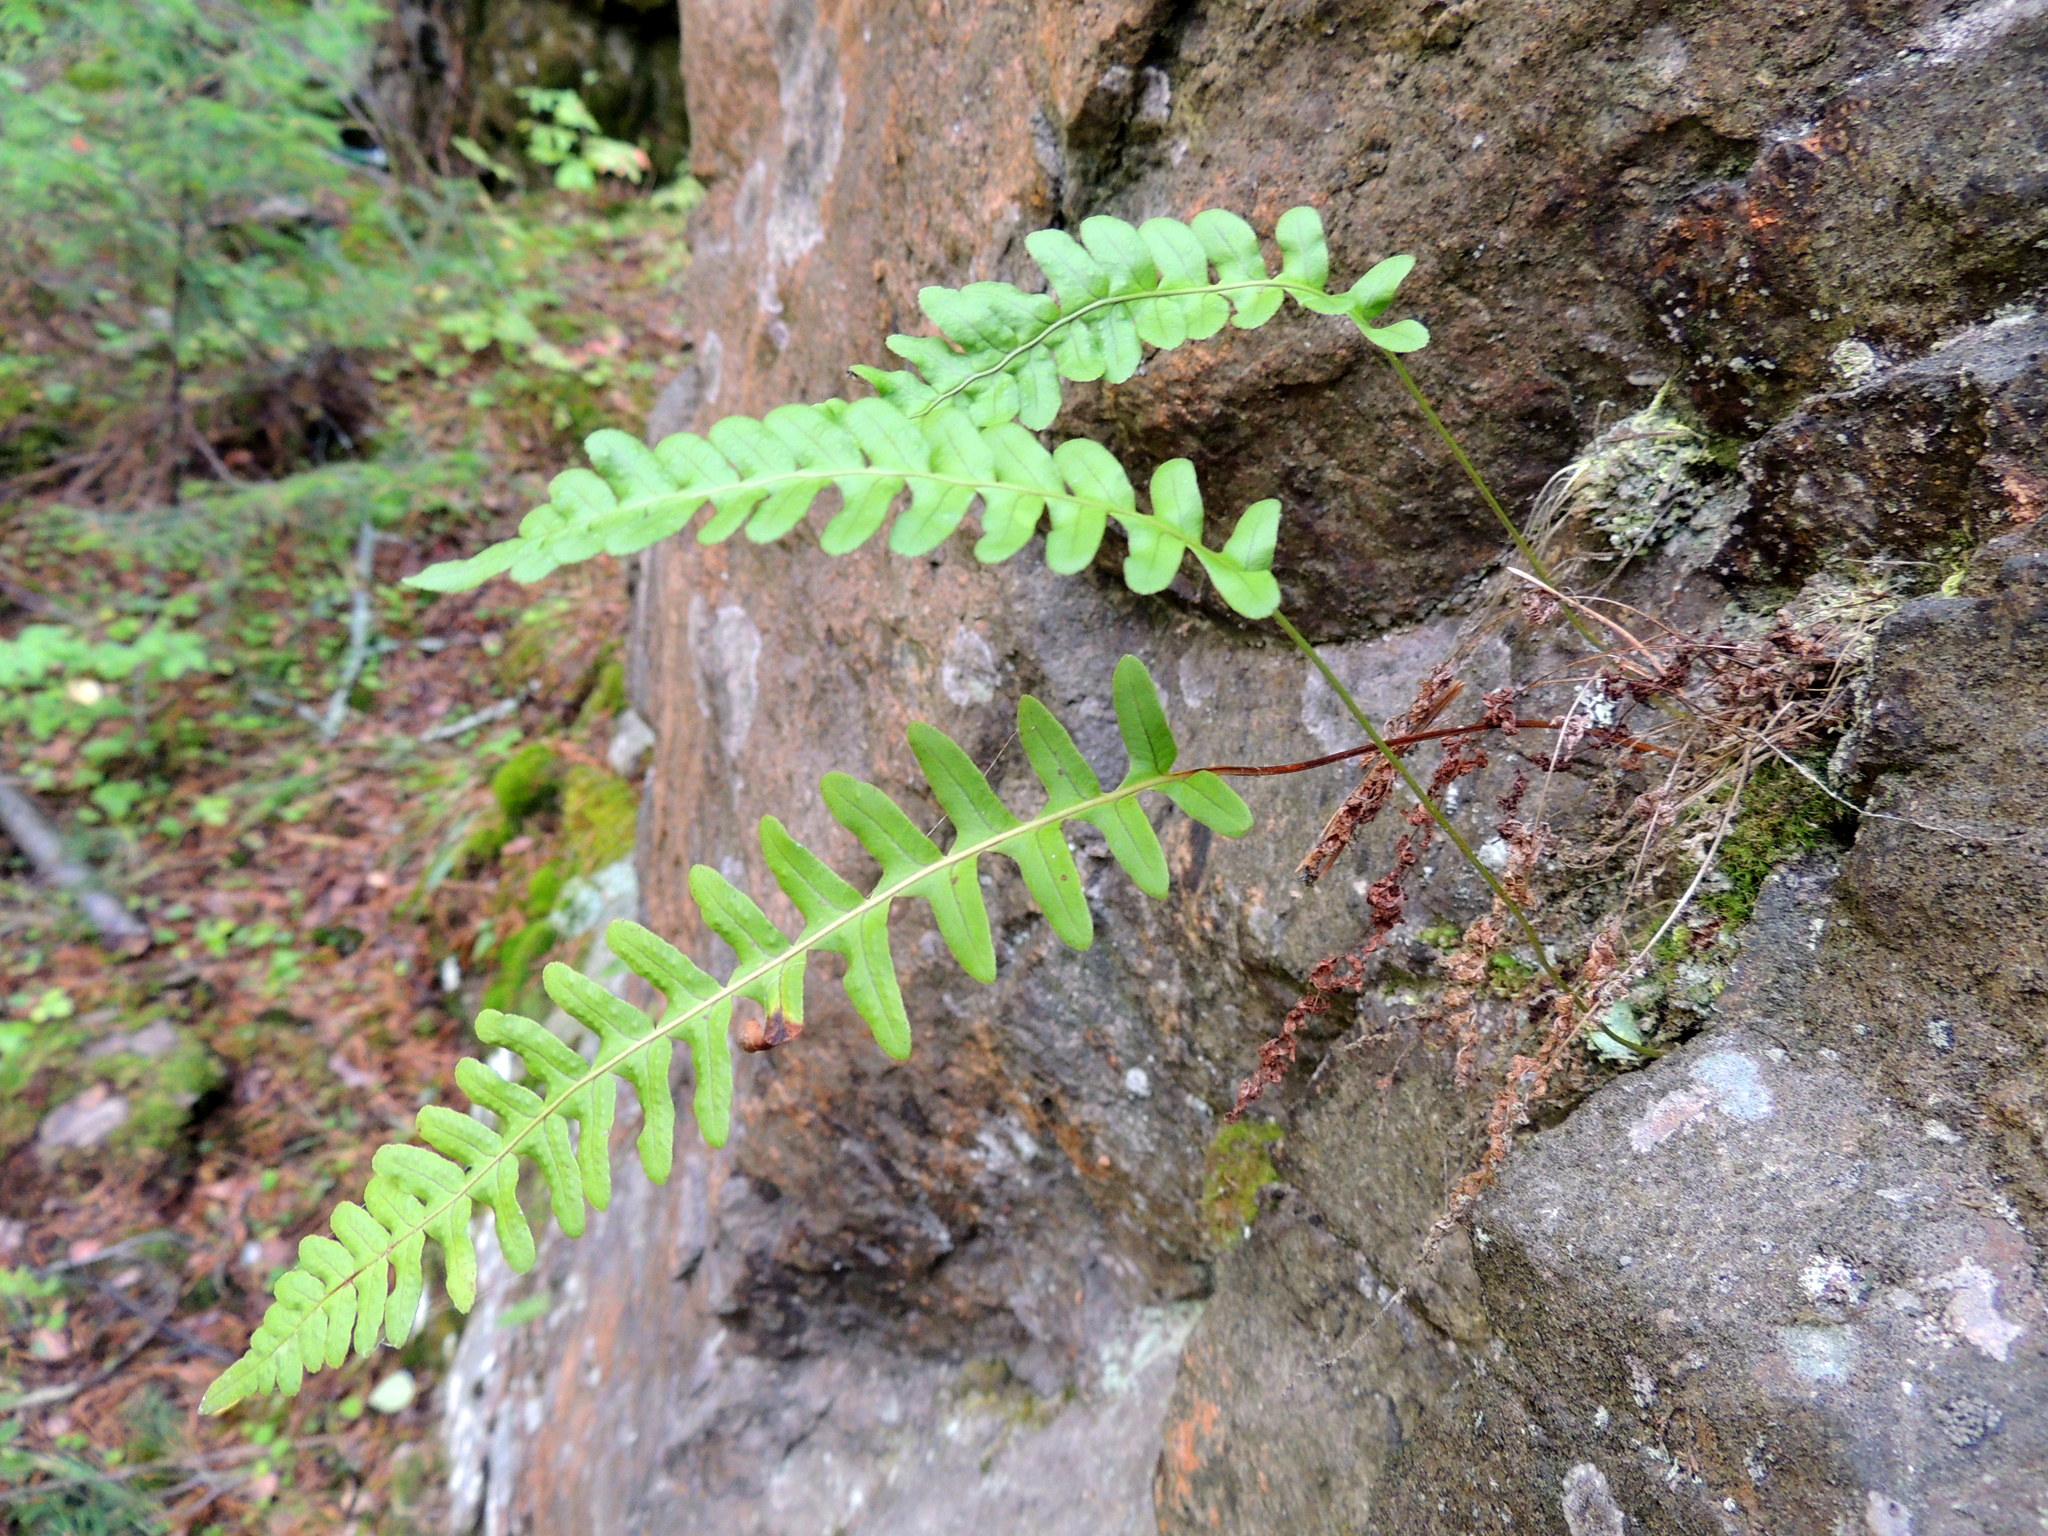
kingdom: Plantae
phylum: Tracheophyta
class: Polypodiopsida
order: Polypodiales
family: Polypodiaceae
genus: Polypodium
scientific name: Polypodium vulgare
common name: Common polypody
